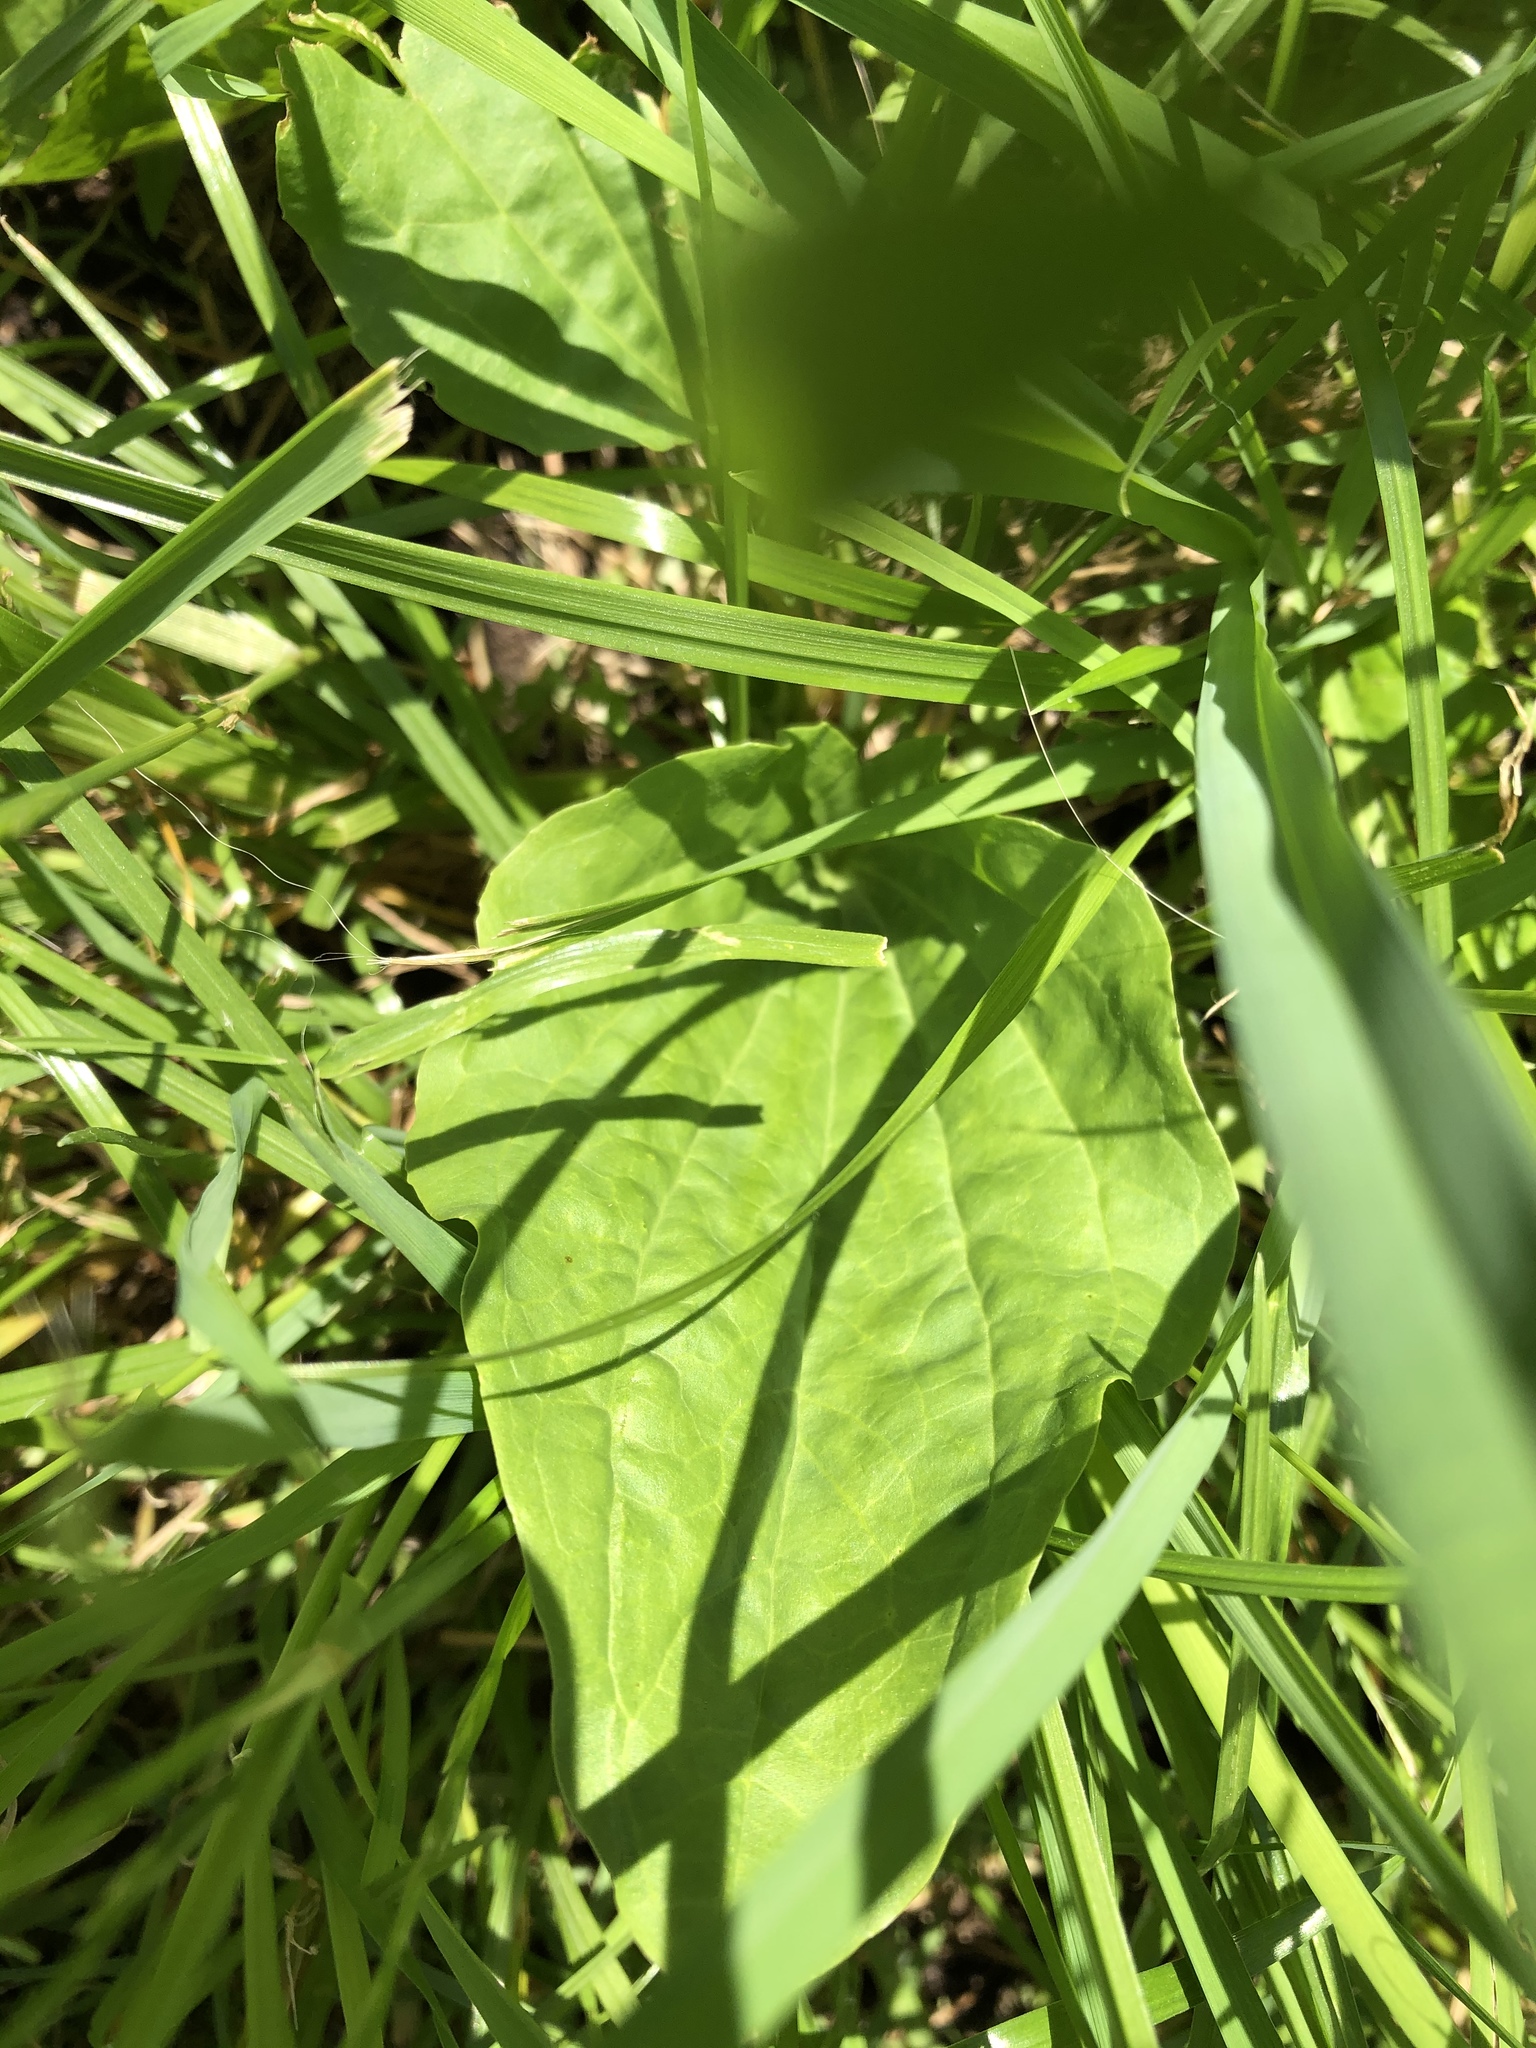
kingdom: Plantae
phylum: Tracheophyta
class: Magnoliopsida
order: Lamiales
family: Plantaginaceae
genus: Plantago
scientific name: Plantago major
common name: Common plantain
